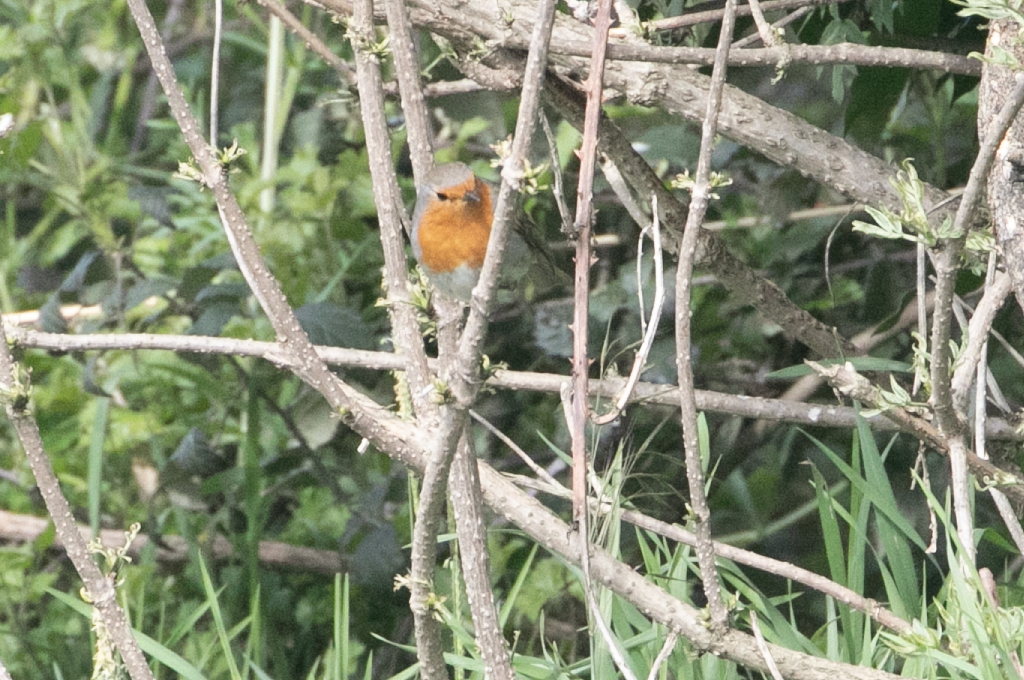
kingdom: Animalia
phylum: Chordata
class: Aves
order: Passeriformes
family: Muscicapidae
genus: Erithacus
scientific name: Erithacus rubecula
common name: European robin
